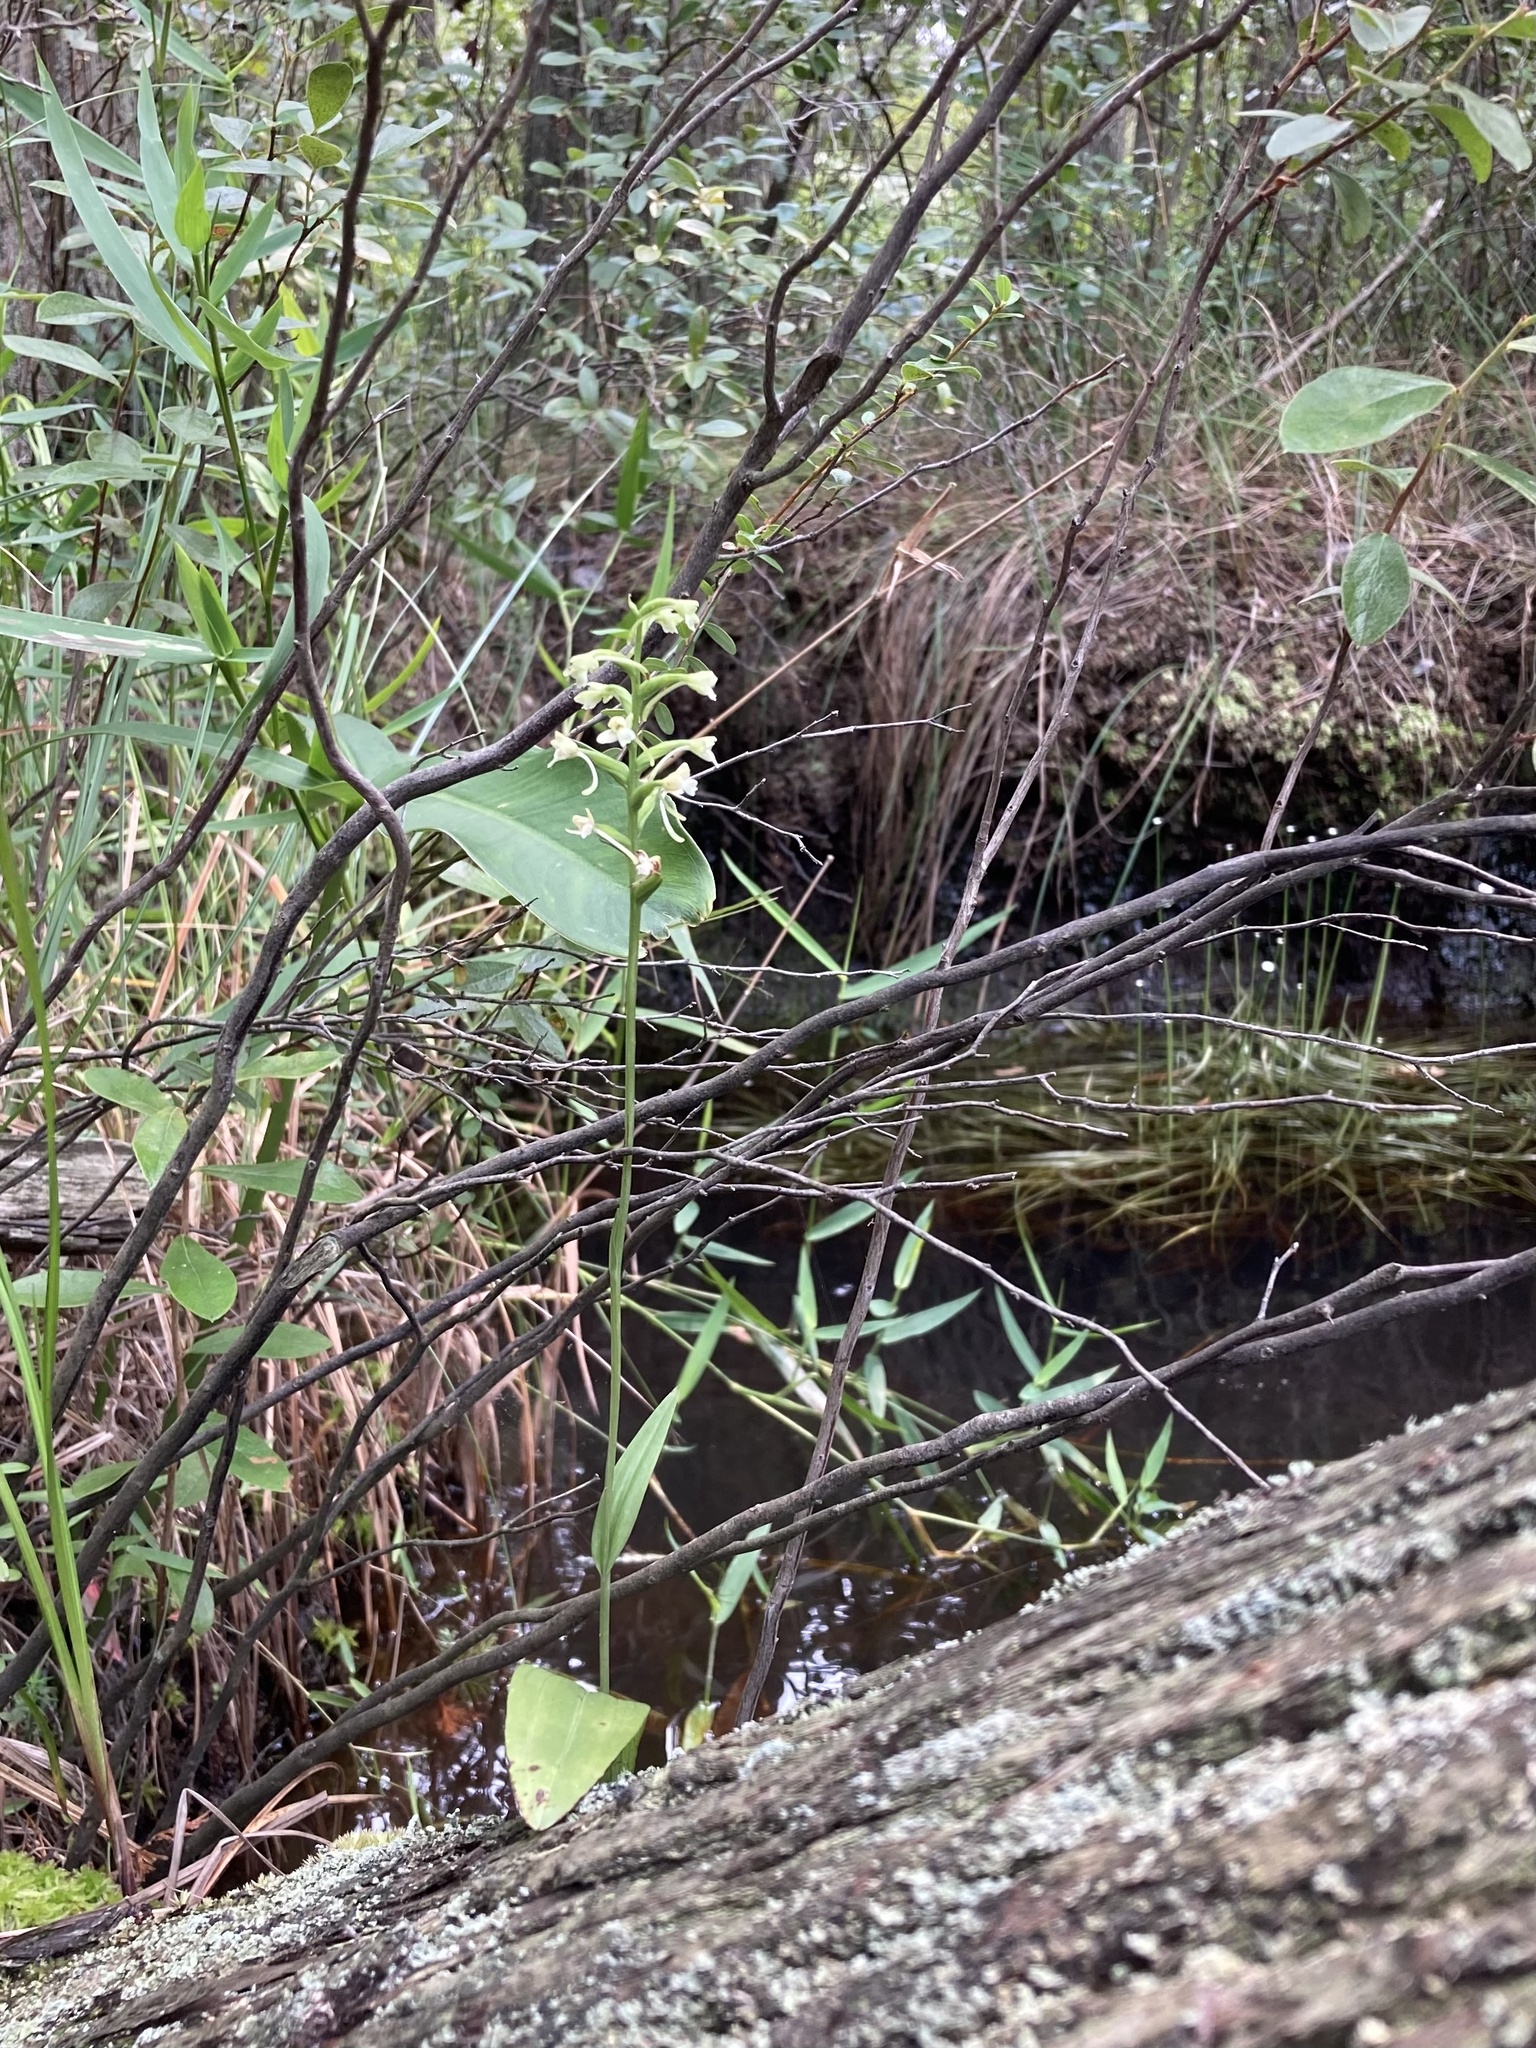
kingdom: Plantae
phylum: Tracheophyta
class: Liliopsida
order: Asparagales
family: Orchidaceae
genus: Platanthera
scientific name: Platanthera clavellata
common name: Club-spur orchid
